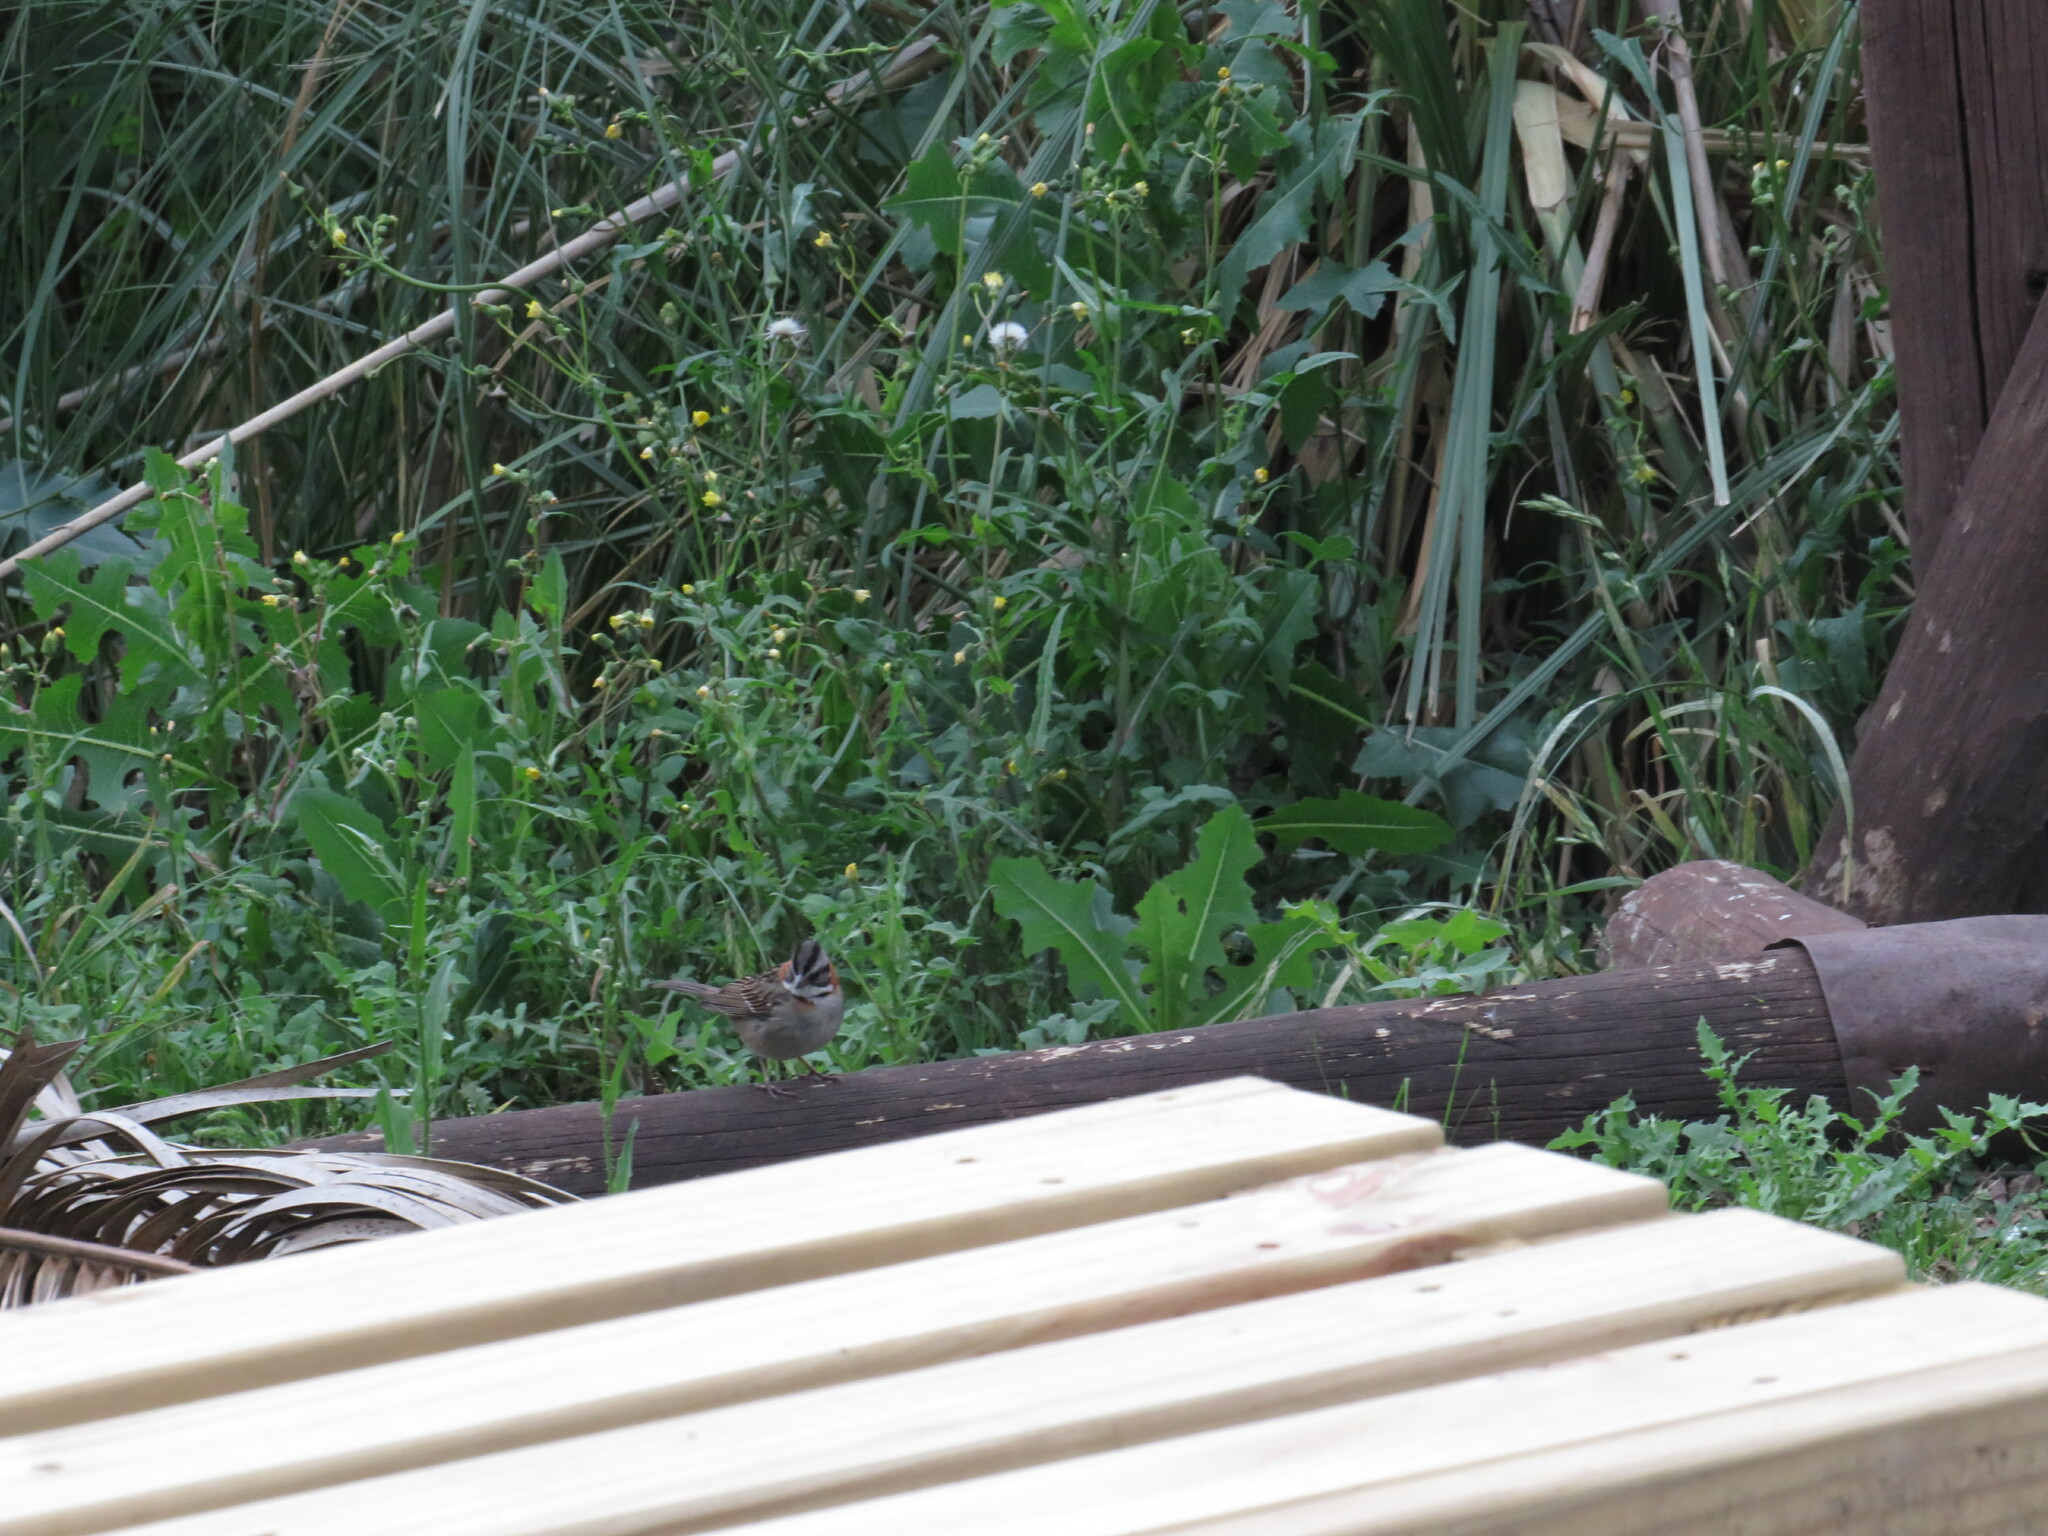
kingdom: Animalia
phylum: Chordata
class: Aves
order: Passeriformes
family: Passerellidae
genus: Zonotrichia
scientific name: Zonotrichia capensis
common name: Rufous-collared sparrow
